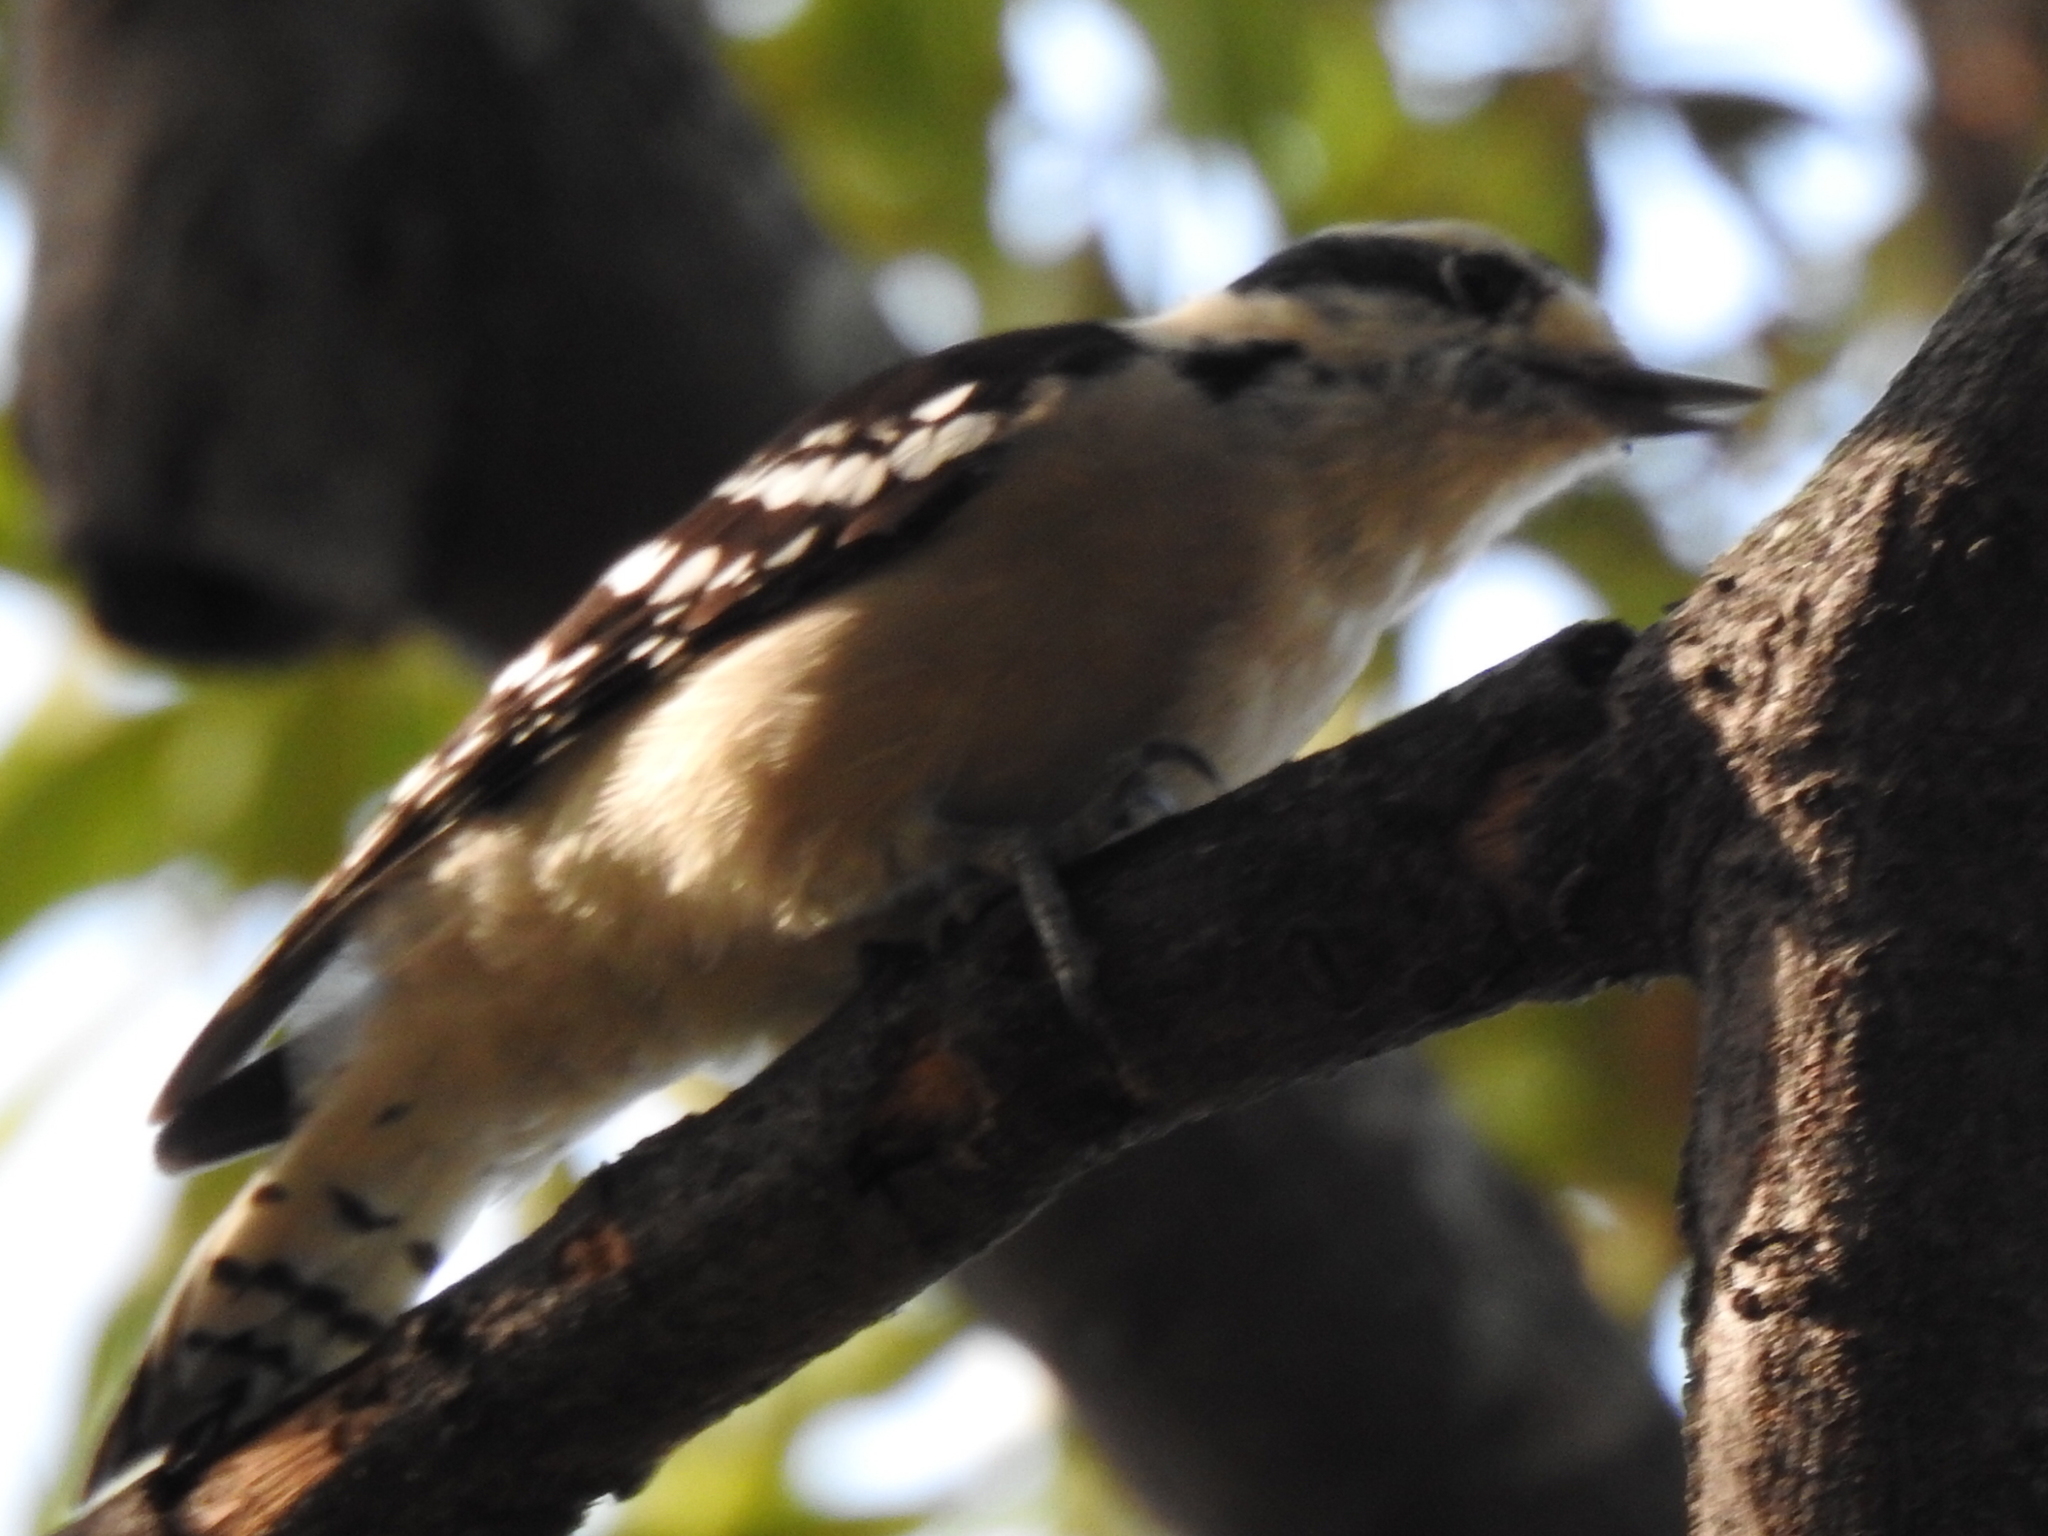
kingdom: Animalia
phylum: Chordata
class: Aves
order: Piciformes
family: Picidae
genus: Dryobates
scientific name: Dryobates pubescens
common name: Downy woodpecker
